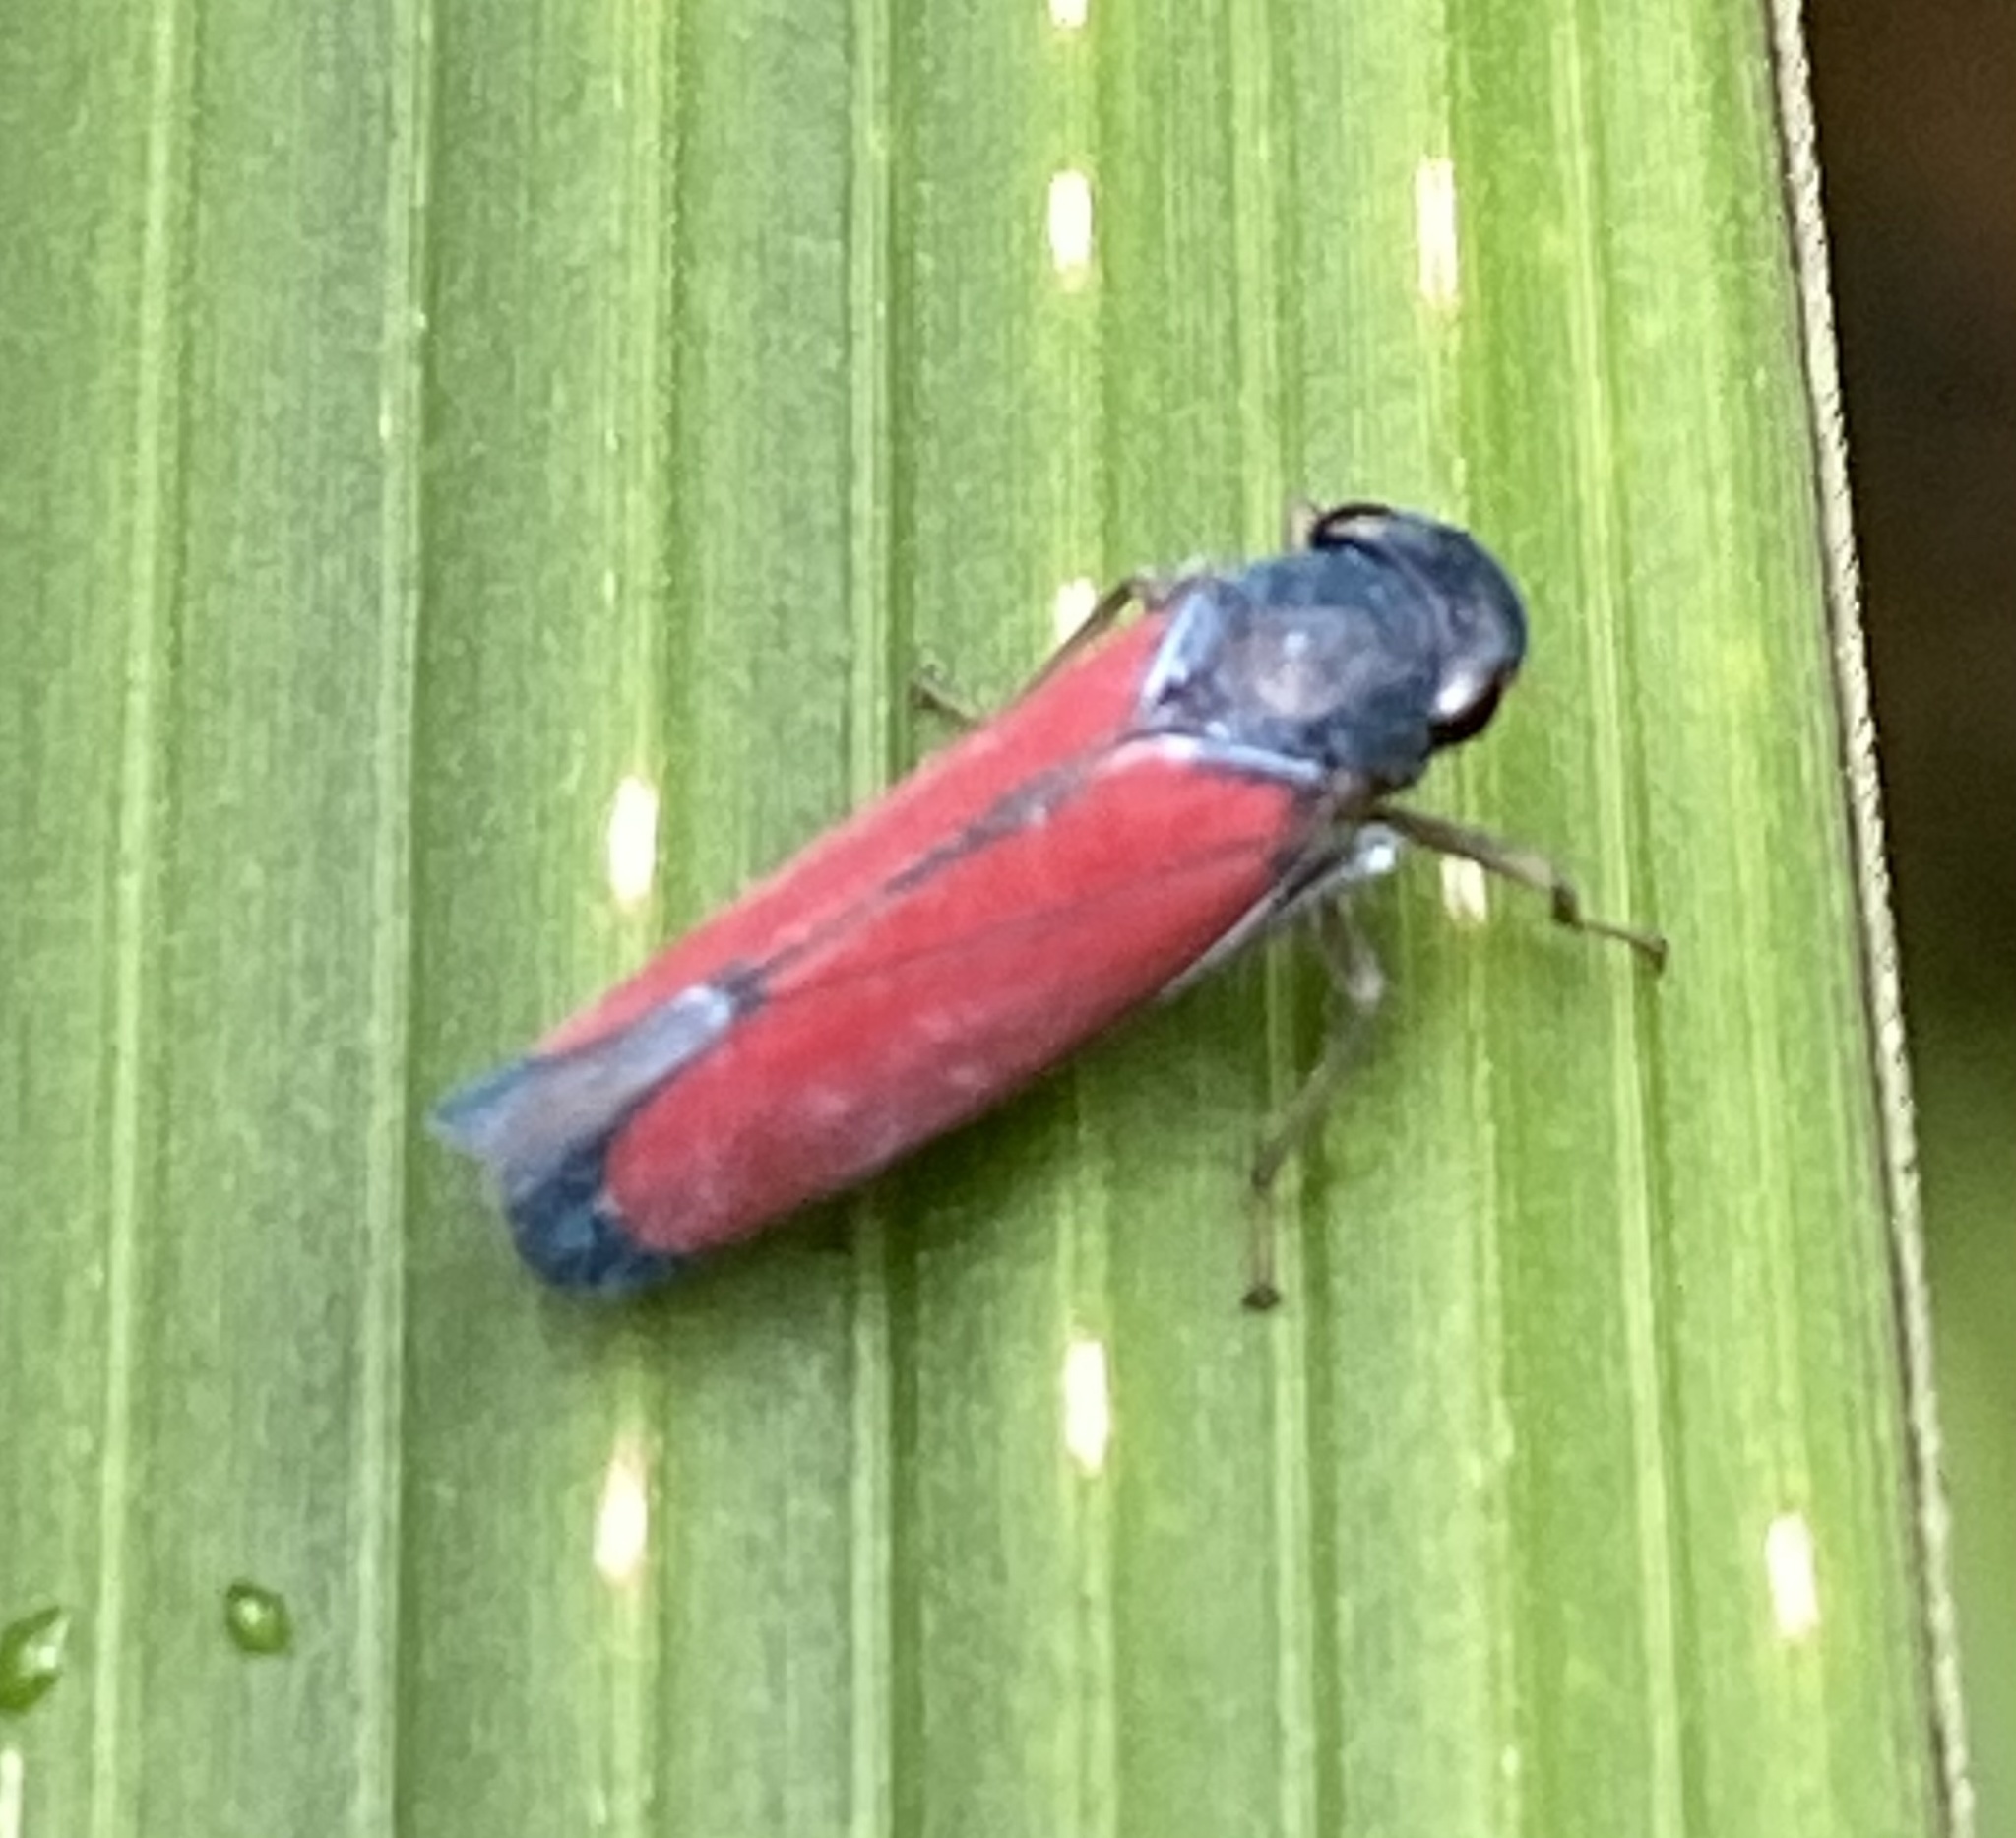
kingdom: Animalia
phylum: Arthropoda
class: Insecta
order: Hemiptera
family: Cicadellidae
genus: Cardioscarta
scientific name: Cardioscarta flavifrons
